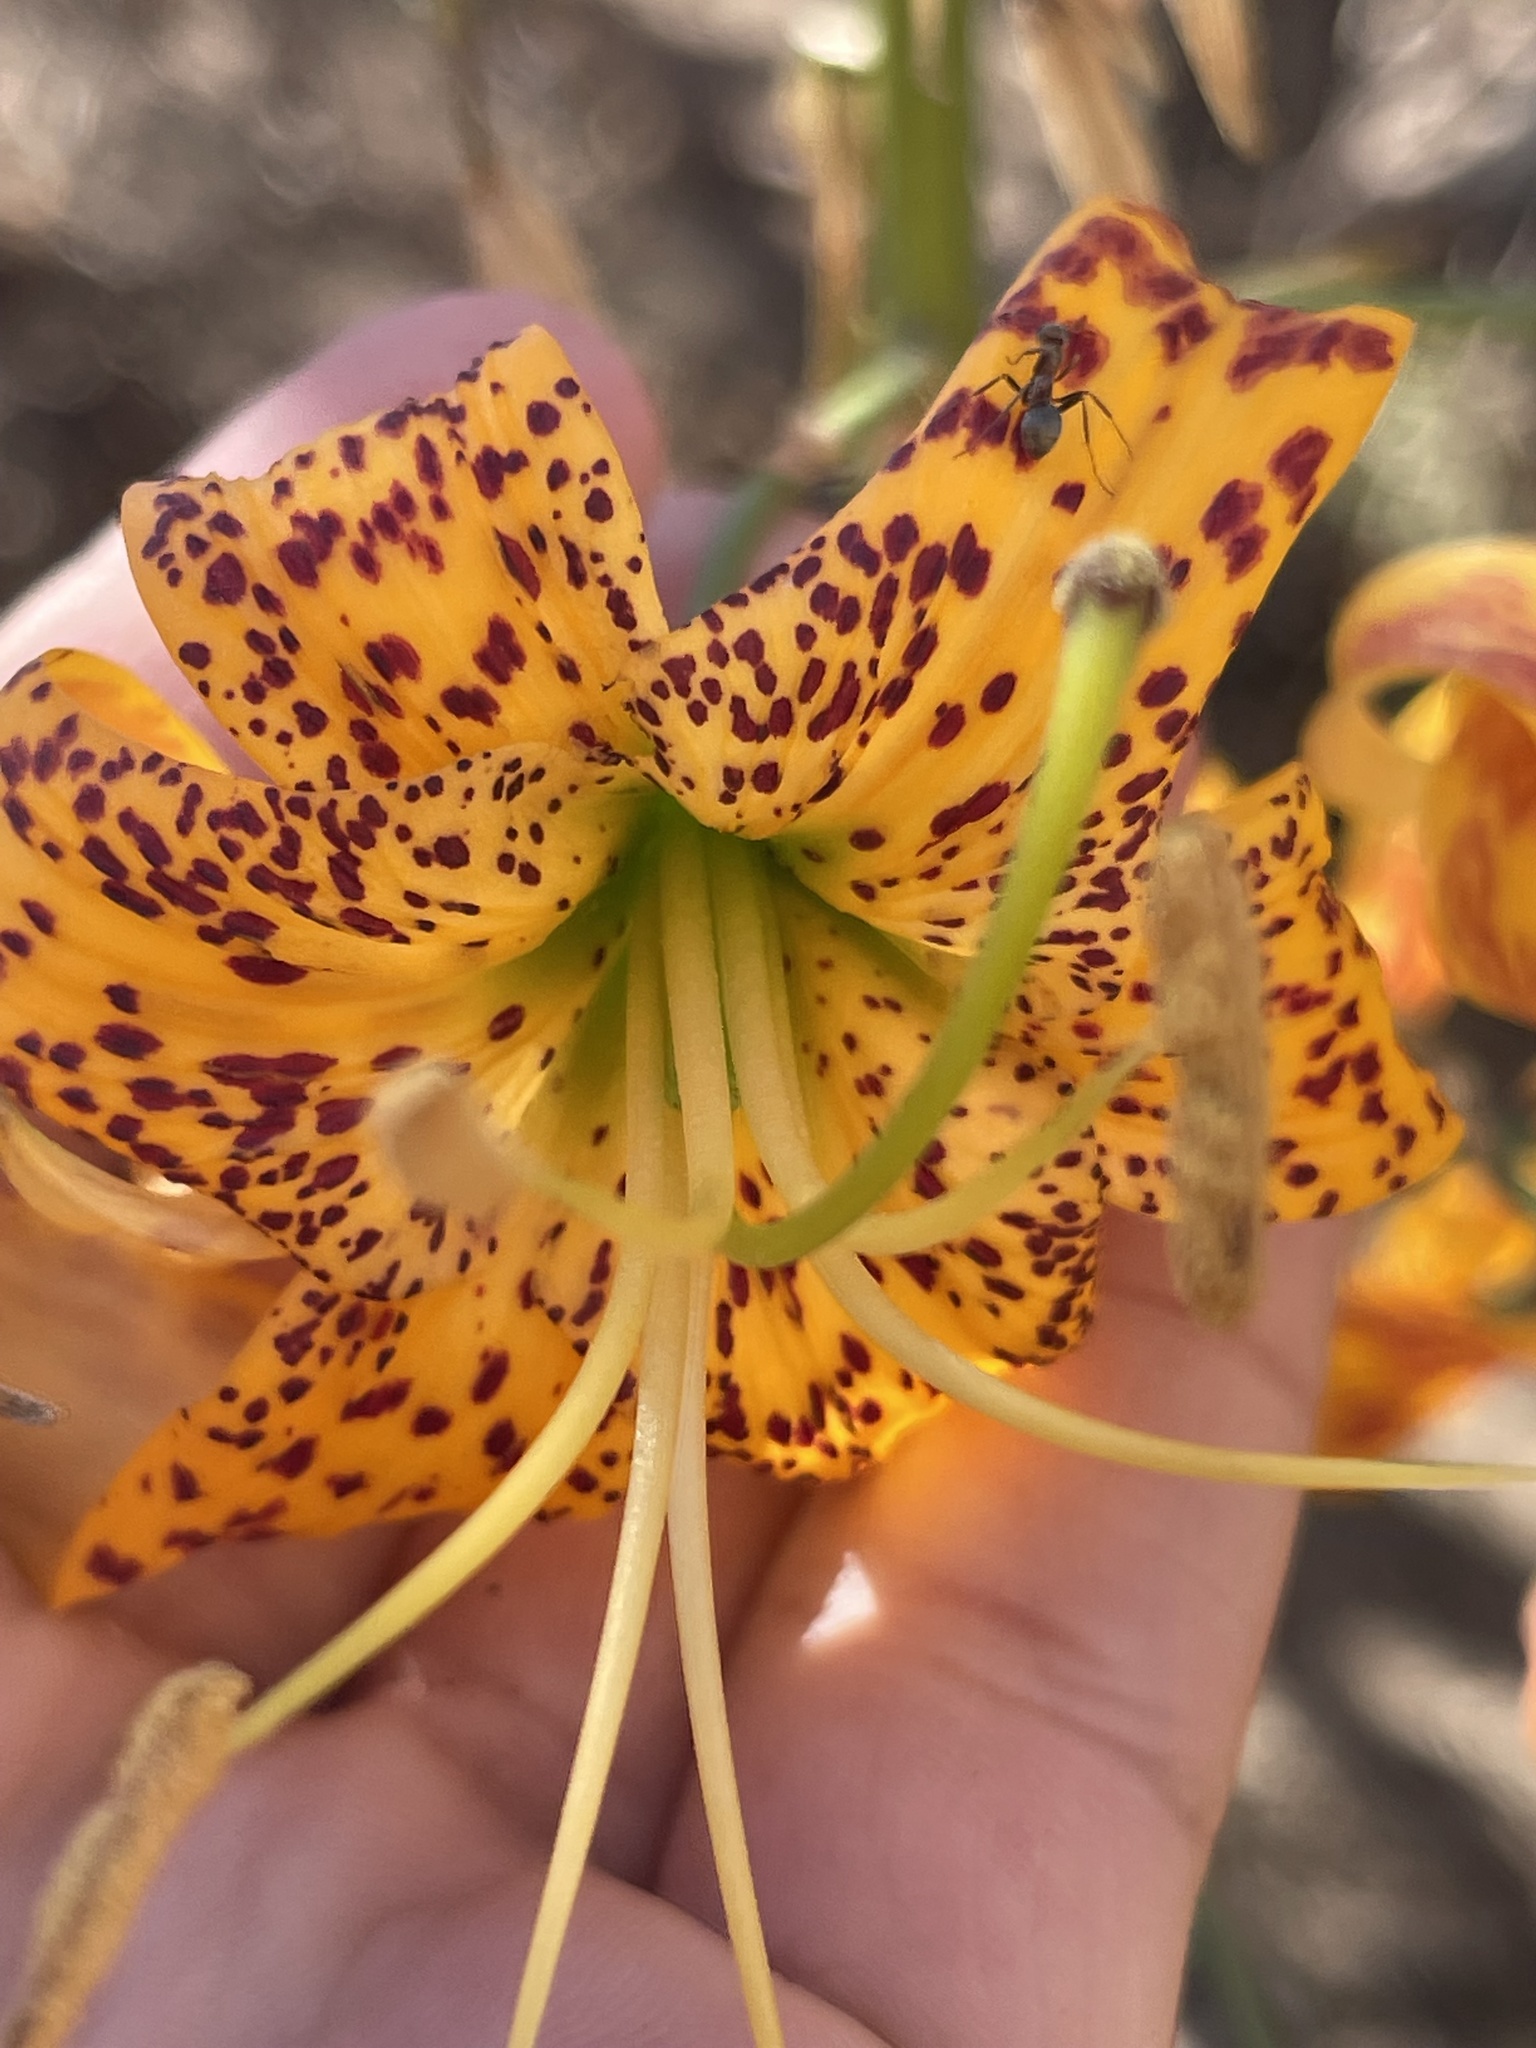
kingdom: Plantae
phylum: Tracheophyta
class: Liliopsida
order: Liliales
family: Liliaceae
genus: Lilium
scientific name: Lilium humboldtii
